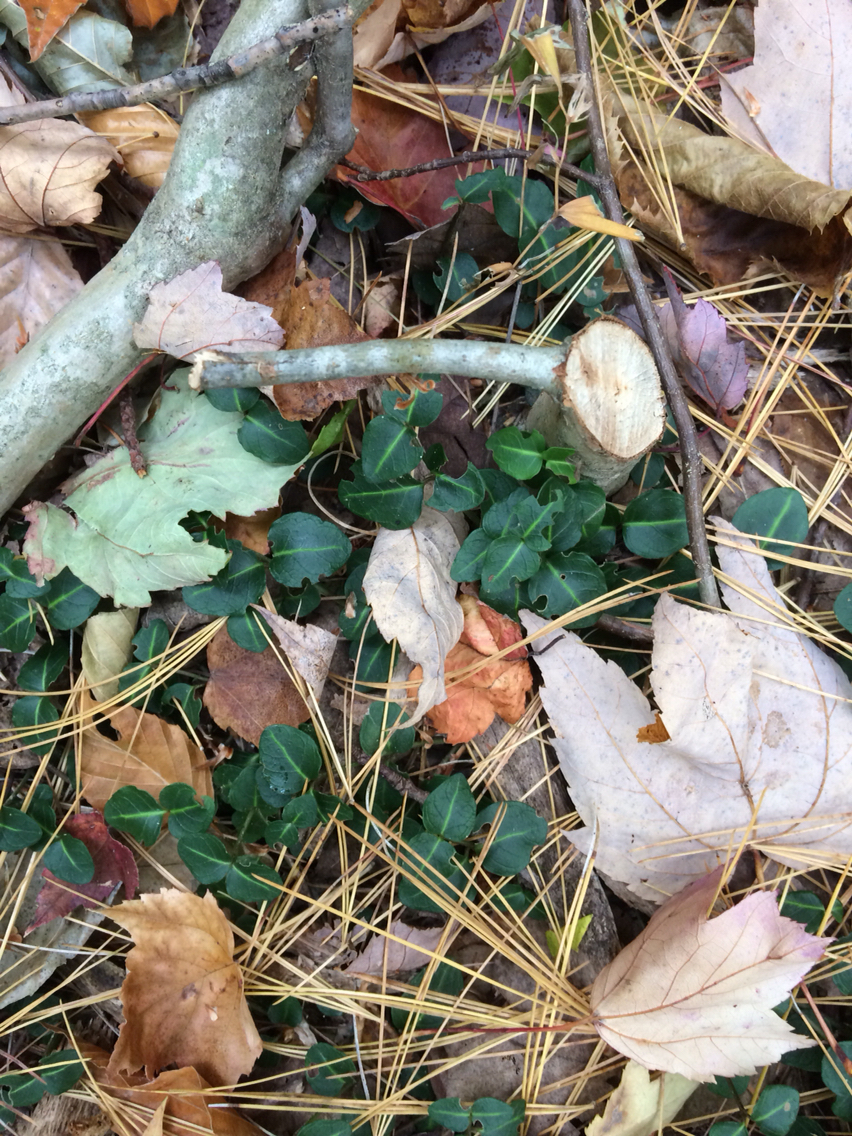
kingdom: Plantae
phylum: Tracheophyta
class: Magnoliopsida
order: Gentianales
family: Rubiaceae
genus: Mitchella
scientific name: Mitchella repens
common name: Partridge-berry
